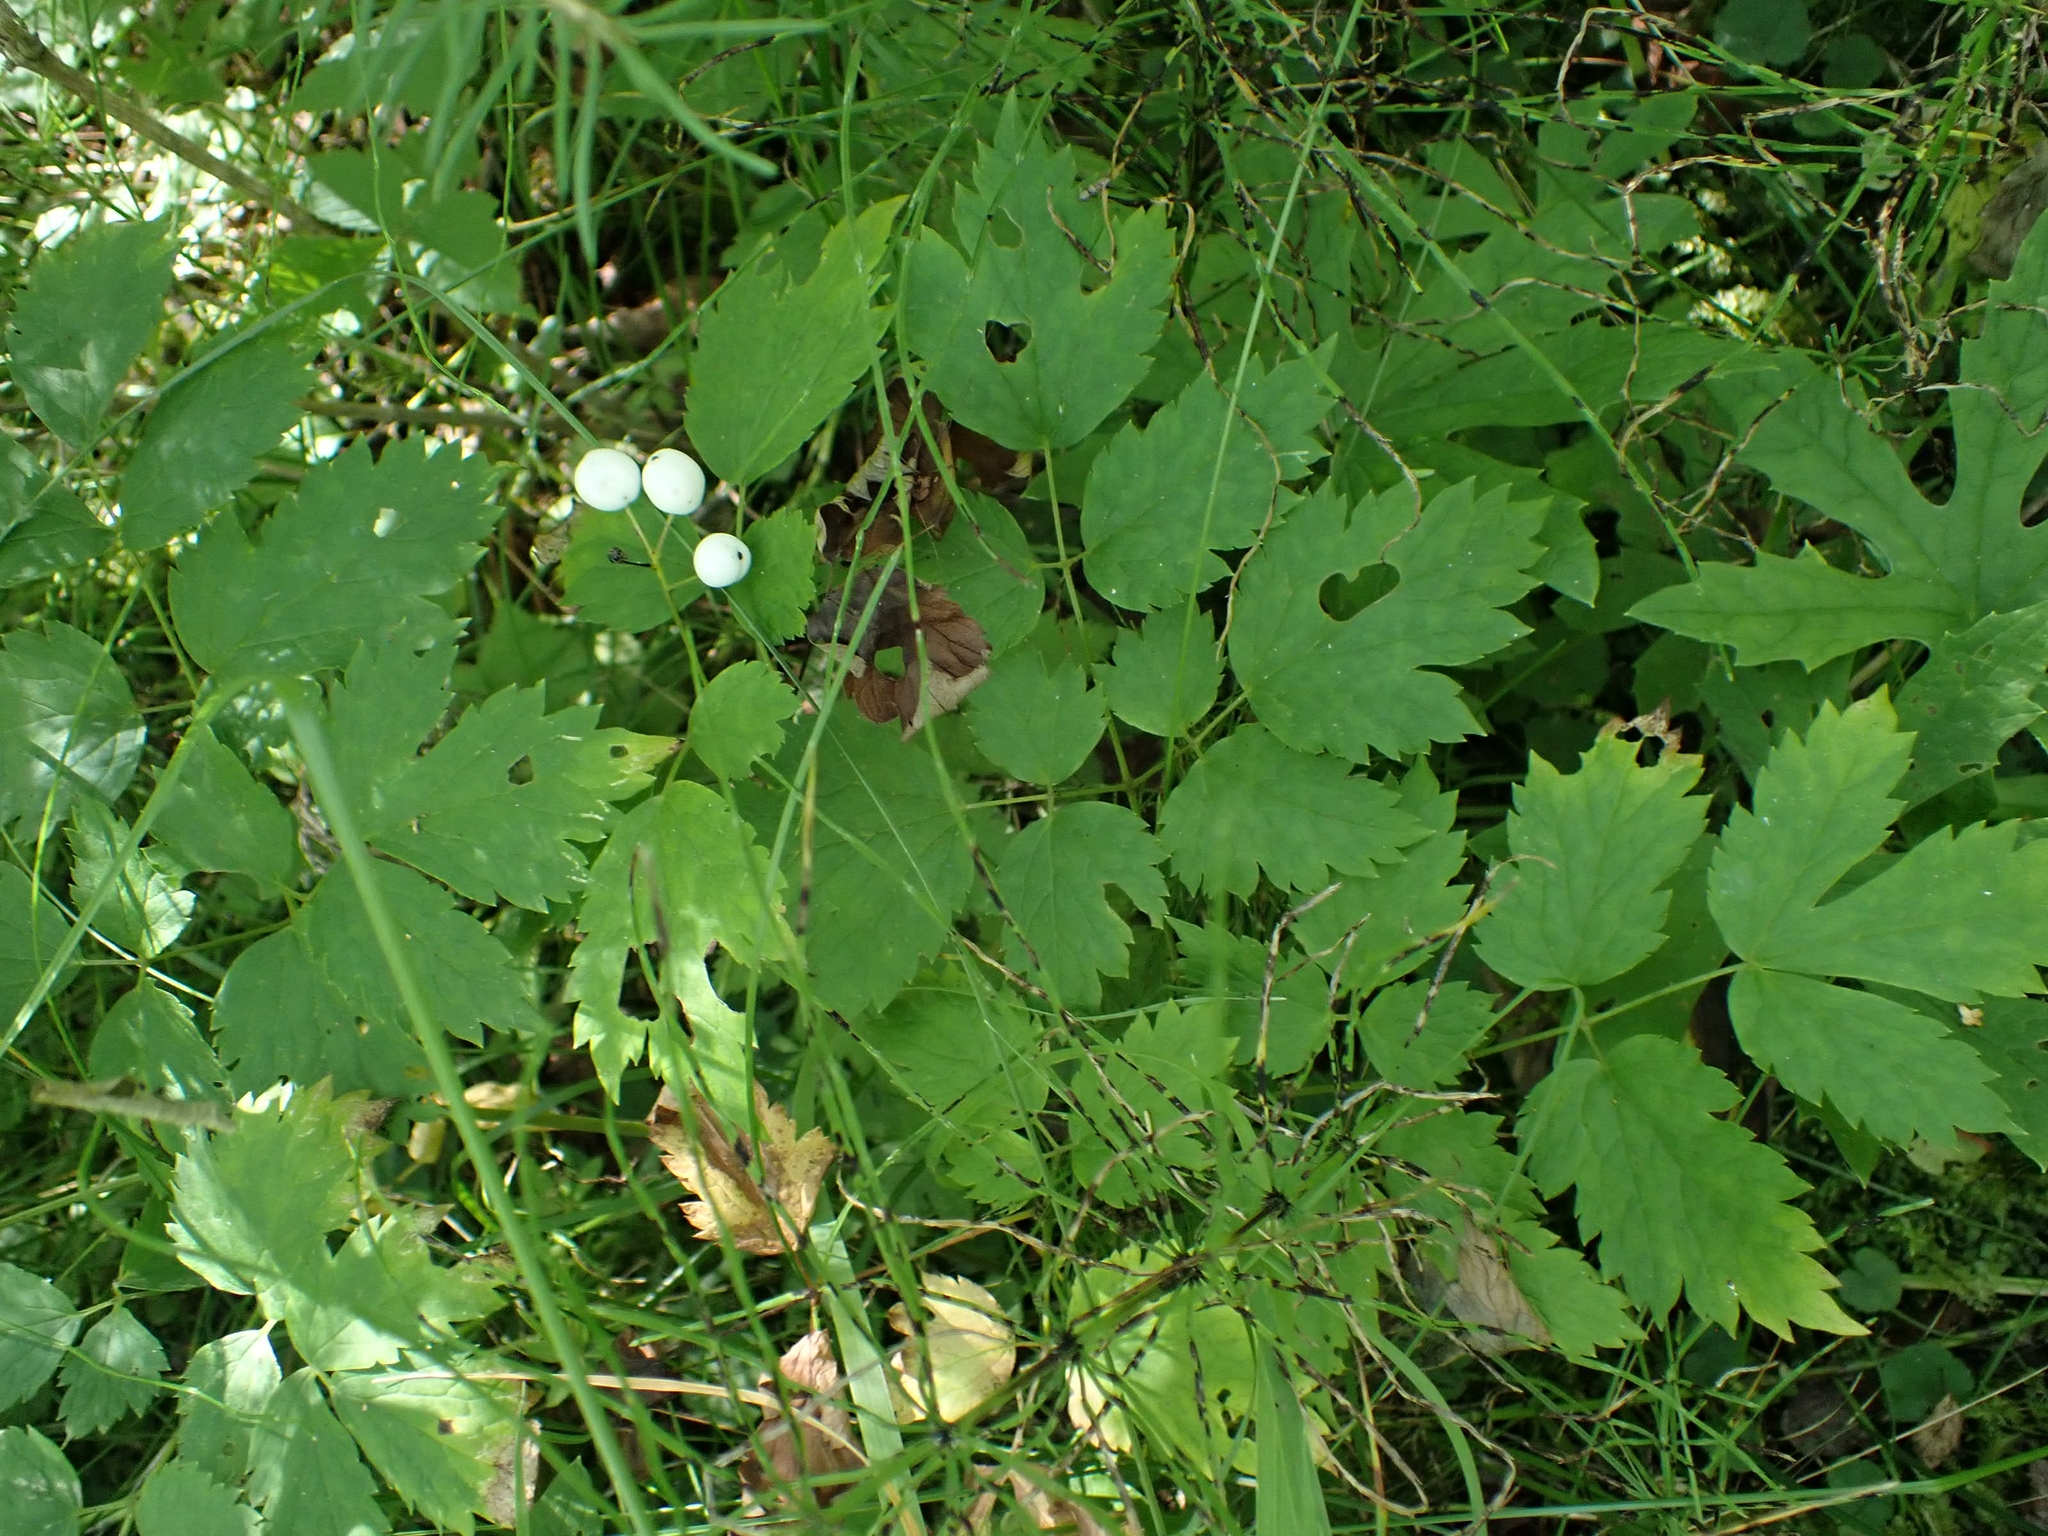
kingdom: Plantae
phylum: Tracheophyta
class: Magnoliopsida
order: Ranunculales
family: Ranunculaceae
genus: Actaea
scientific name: Actaea rubra
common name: Red baneberry
